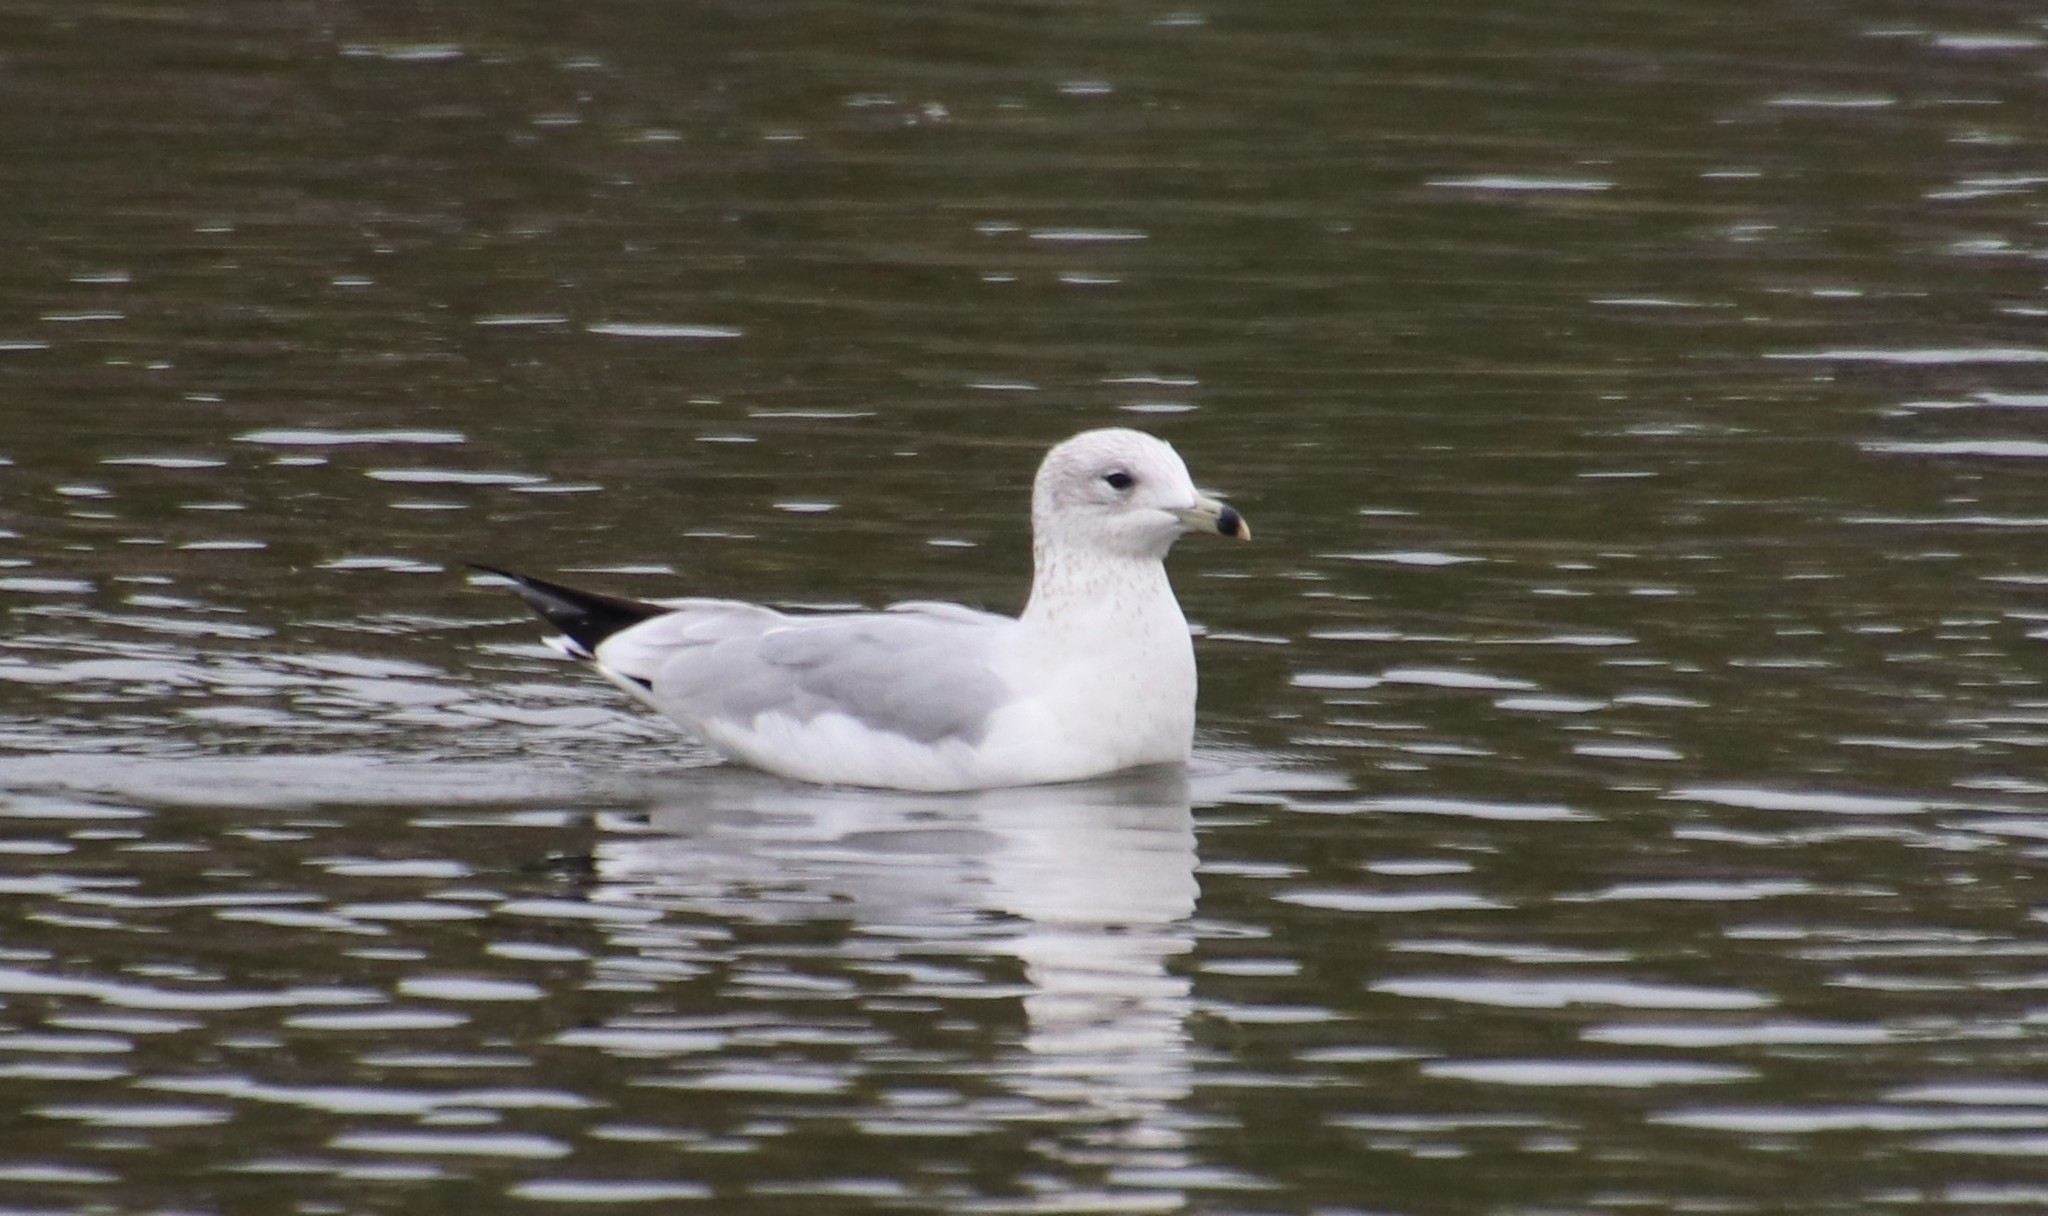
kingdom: Animalia
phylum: Chordata
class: Aves
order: Charadriiformes
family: Laridae
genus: Larus
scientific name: Larus delawarensis
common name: Ring-billed gull
